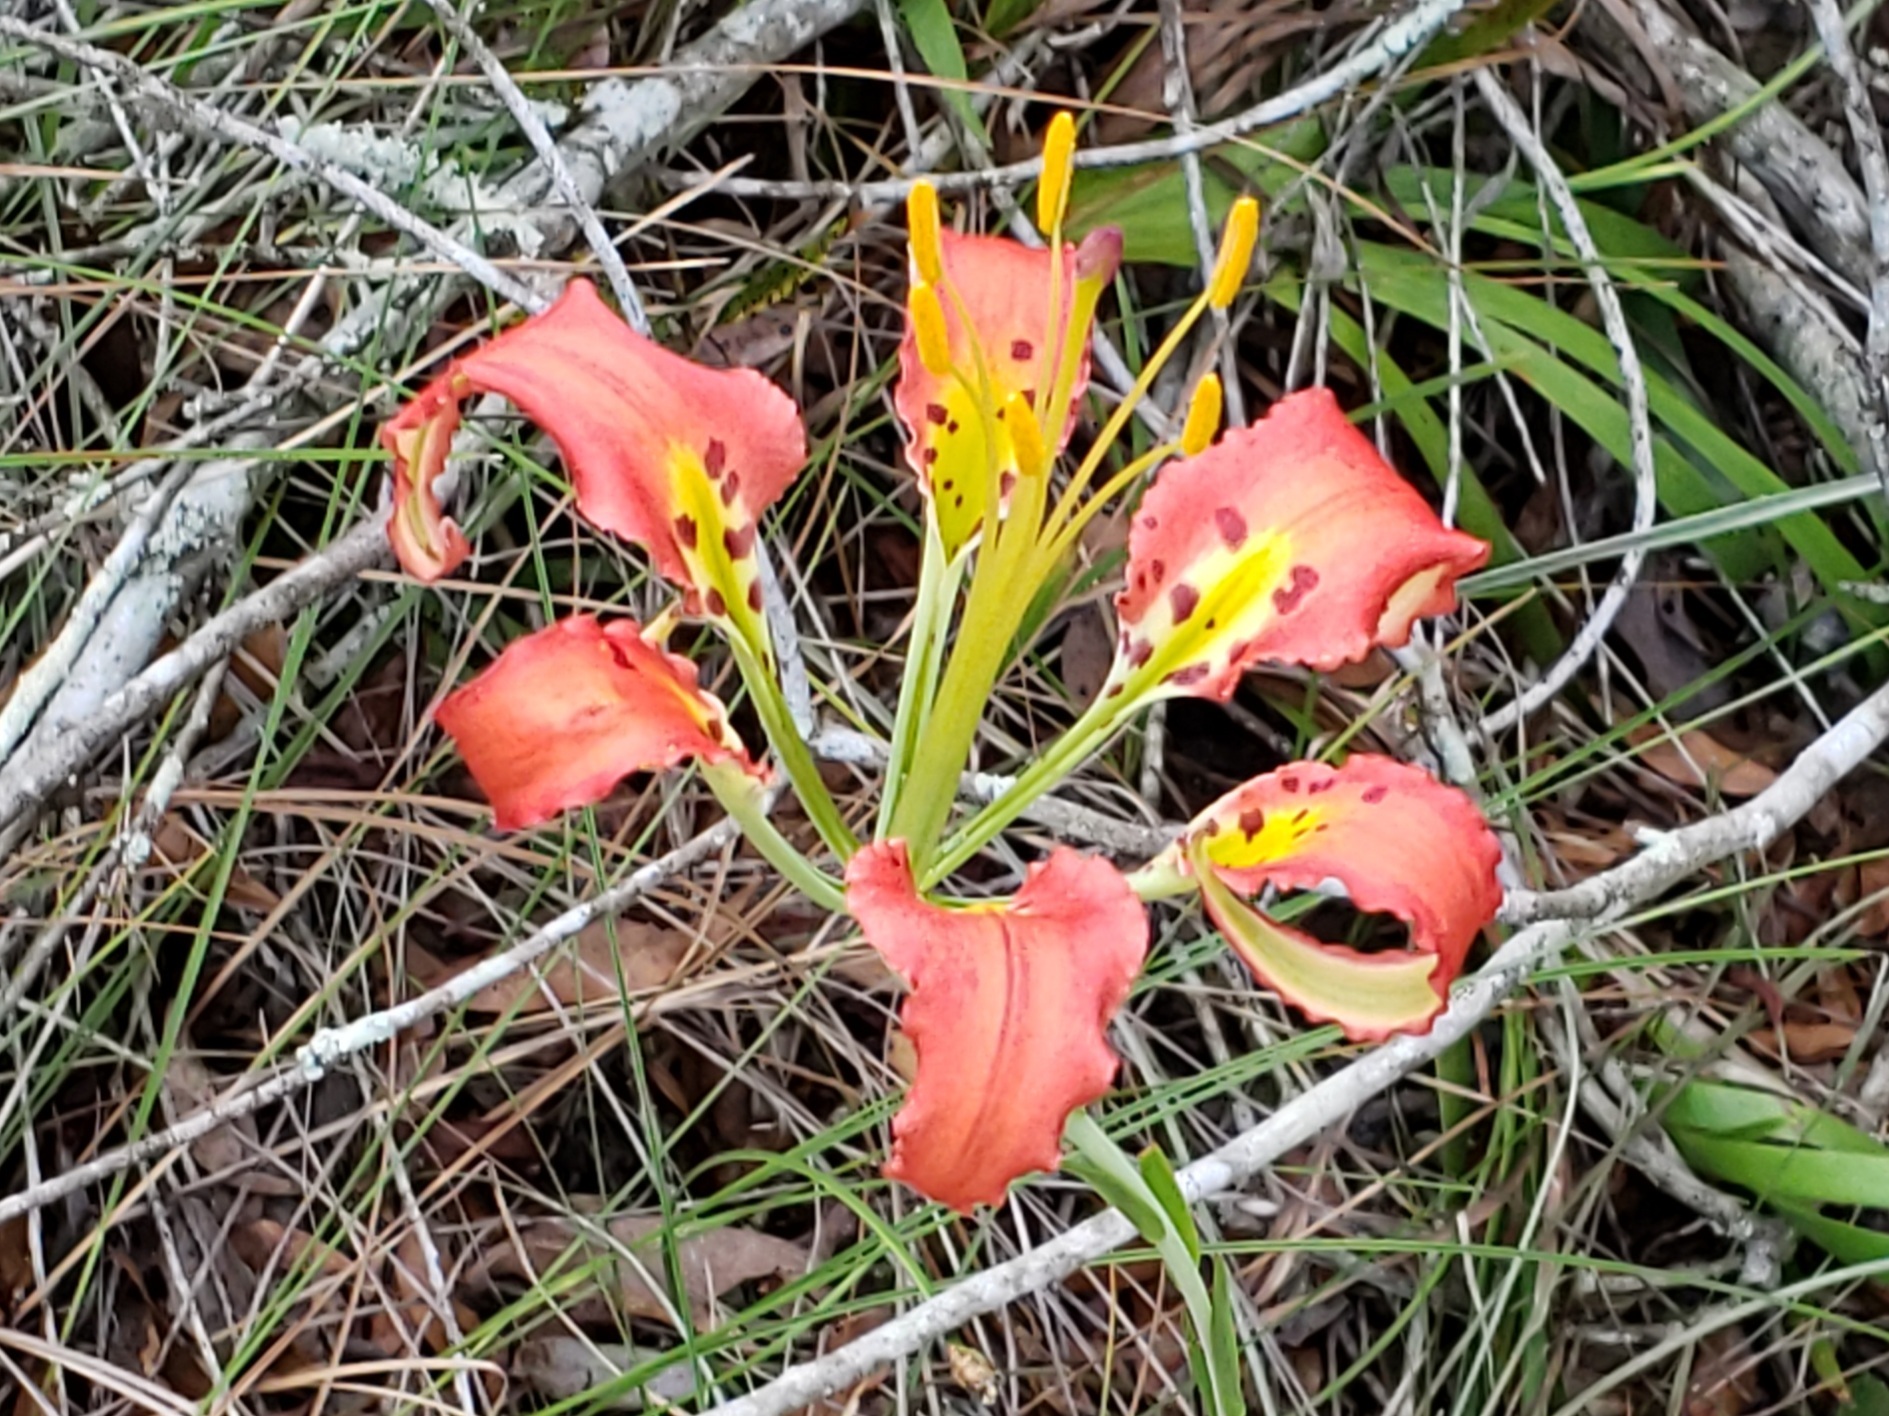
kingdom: Plantae
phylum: Tracheophyta
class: Liliopsida
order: Liliales
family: Liliaceae
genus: Lilium
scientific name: Lilium catesbaei
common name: Catesby's lily
